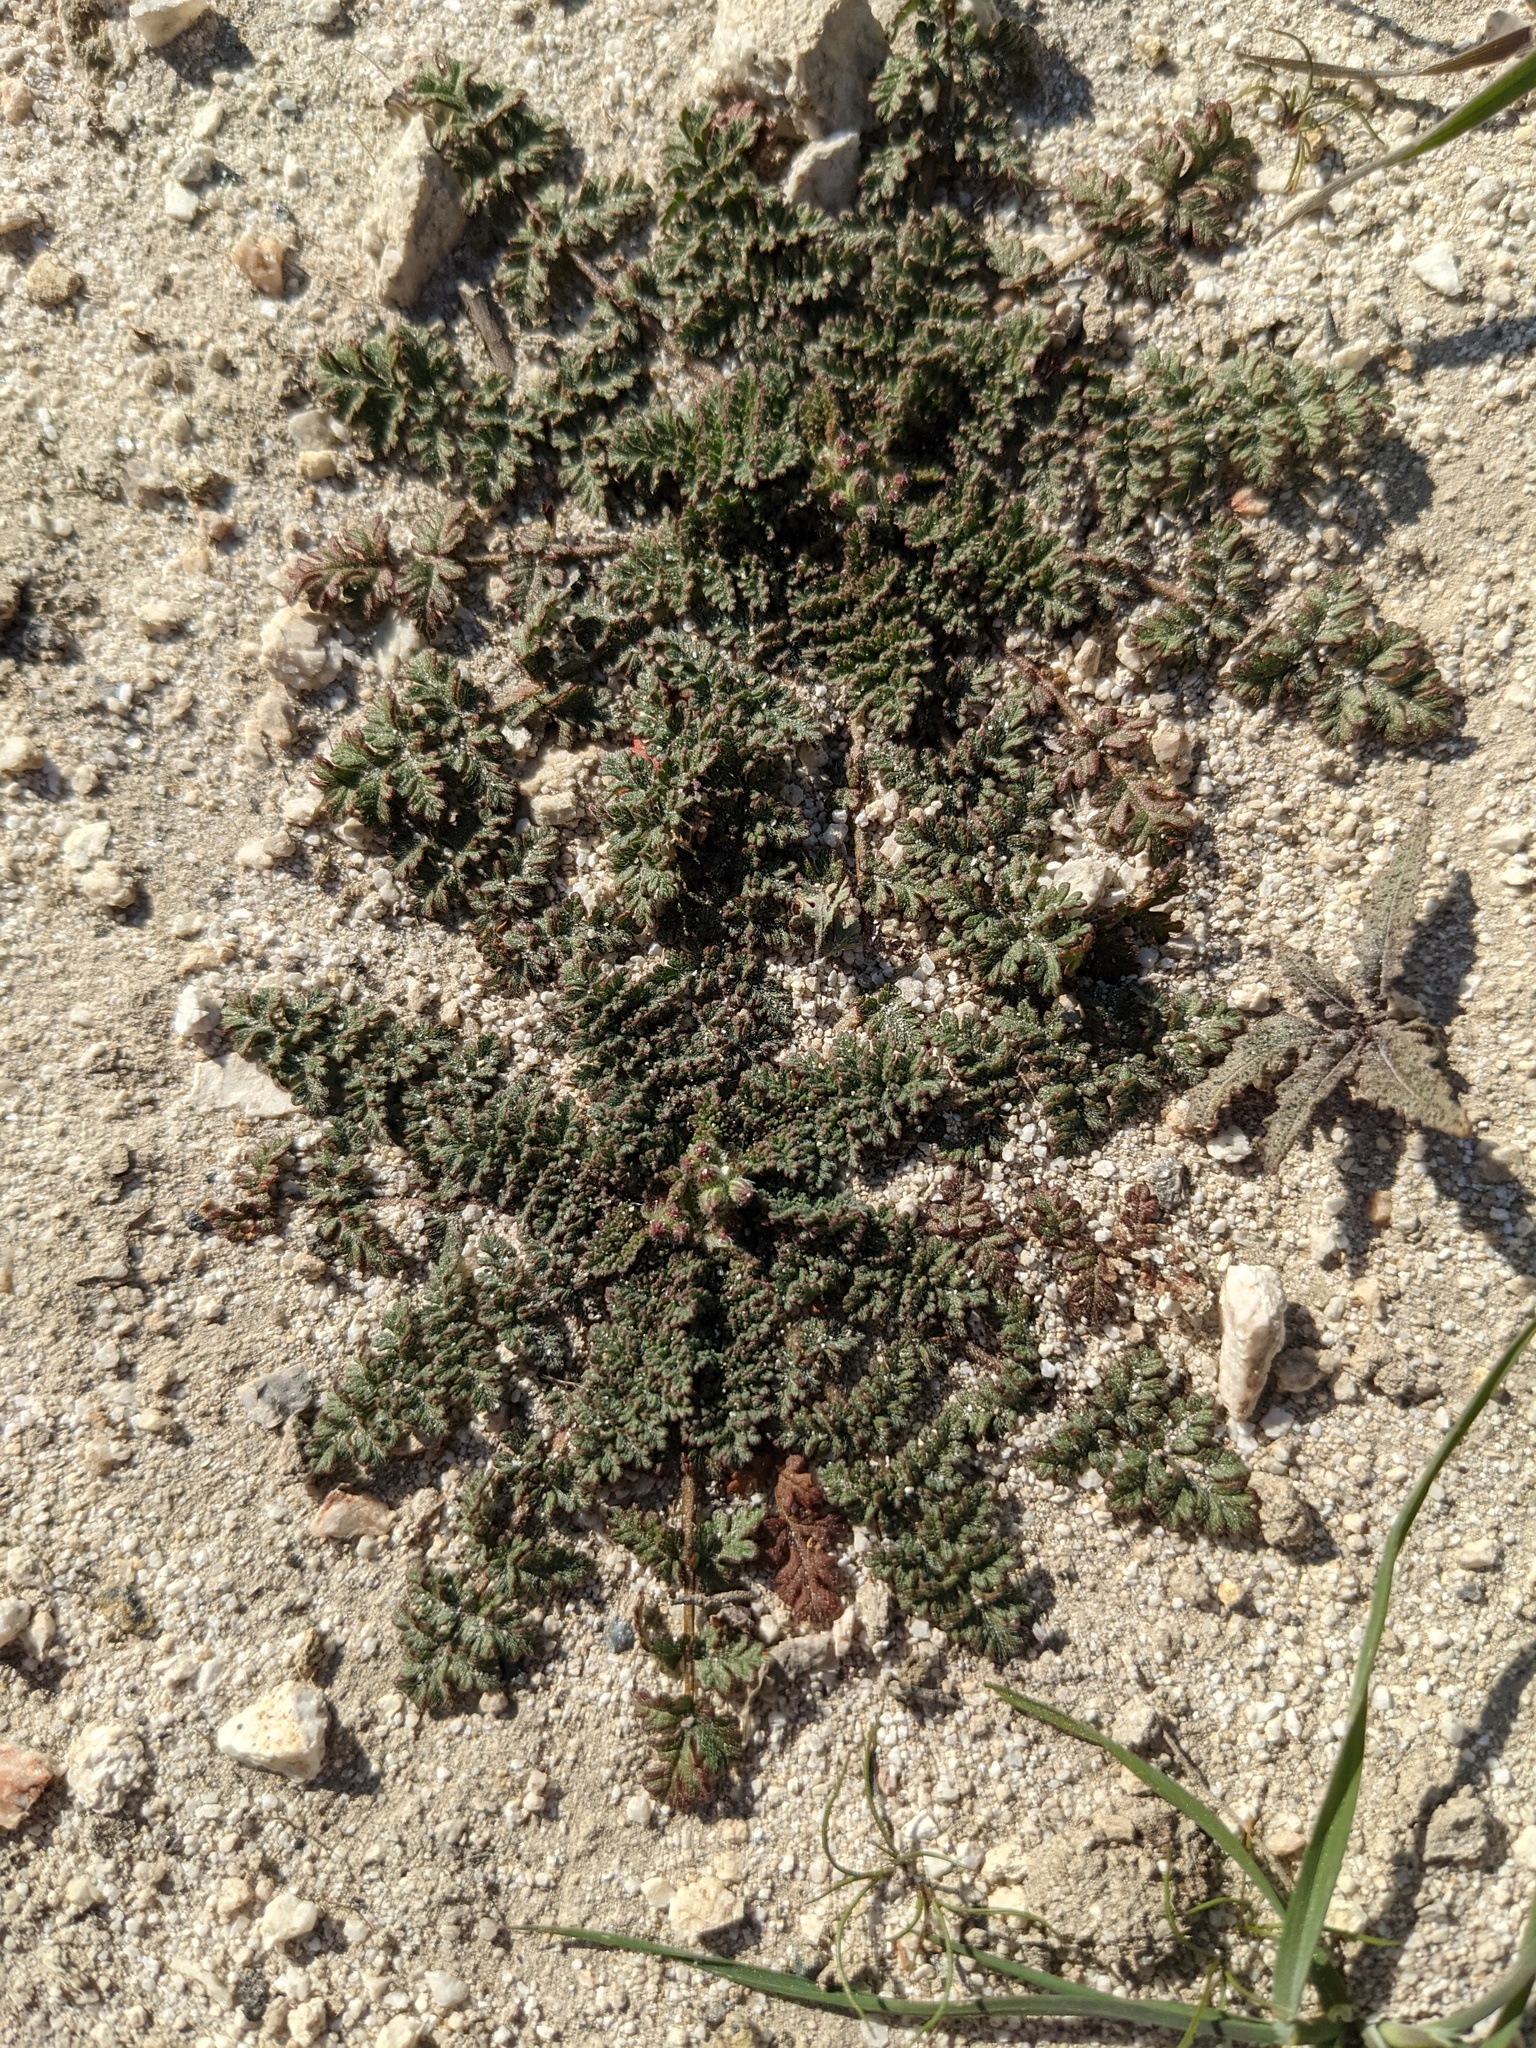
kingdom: Plantae
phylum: Tracheophyta
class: Magnoliopsida
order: Geraniales
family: Geraniaceae
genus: Erodium
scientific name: Erodium cicutarium
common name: Common stork's-bill
